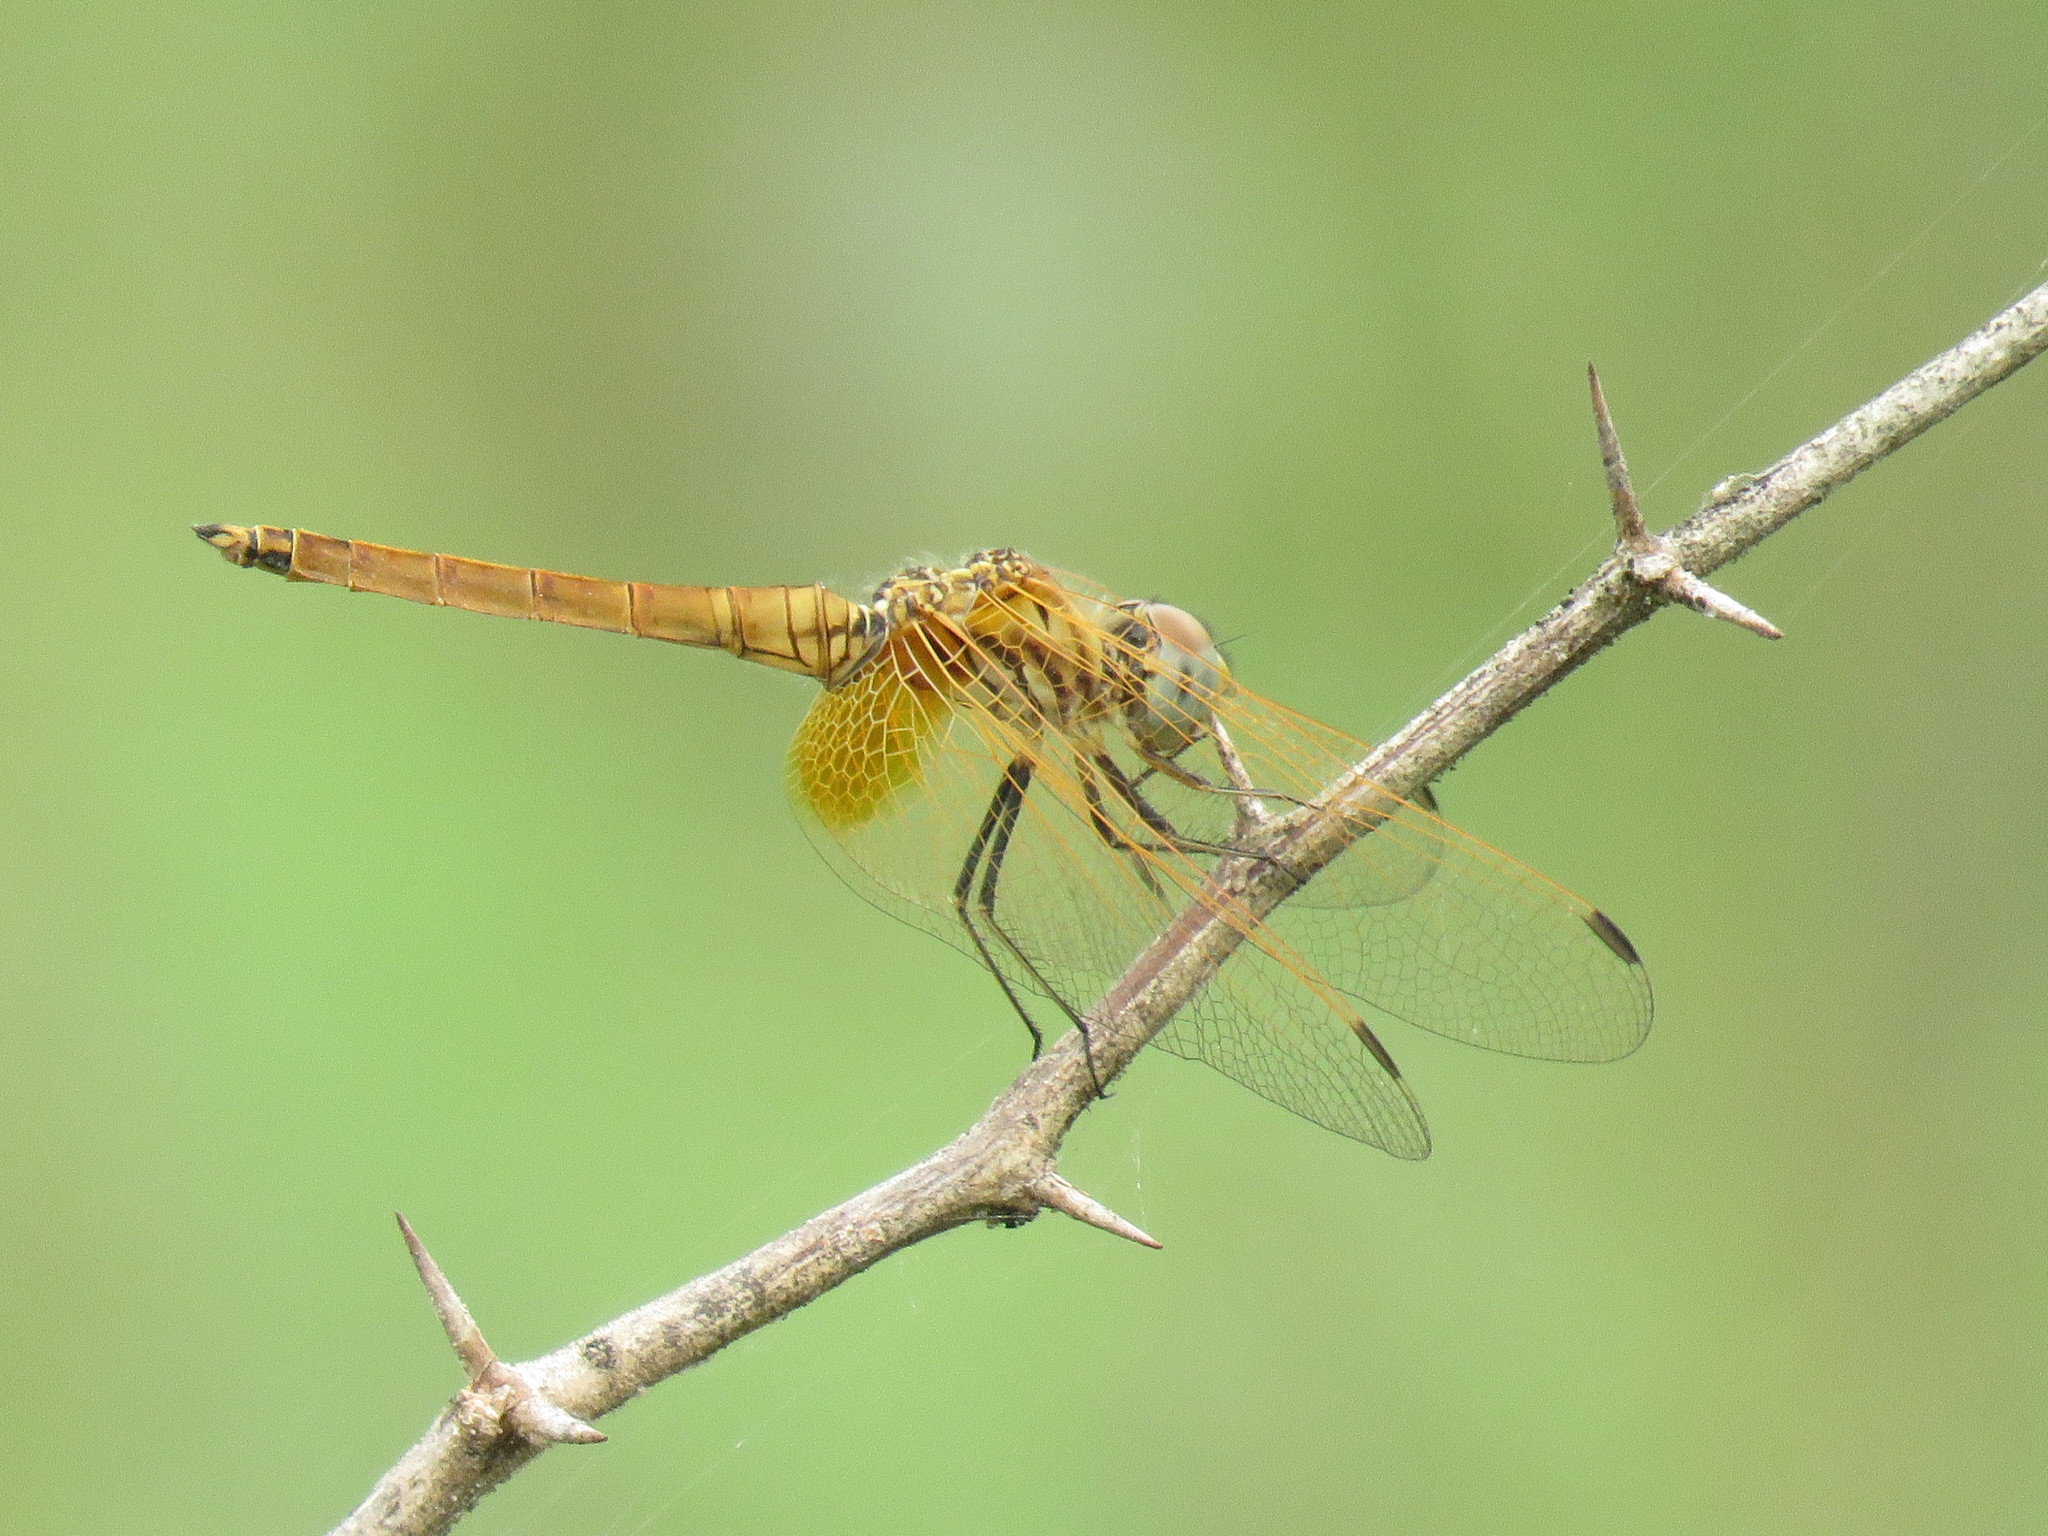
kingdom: Animalia
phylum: Arthropoda
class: Insecta
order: Odonata
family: Libellulidae
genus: Trithemis
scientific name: Trithemis aurora
